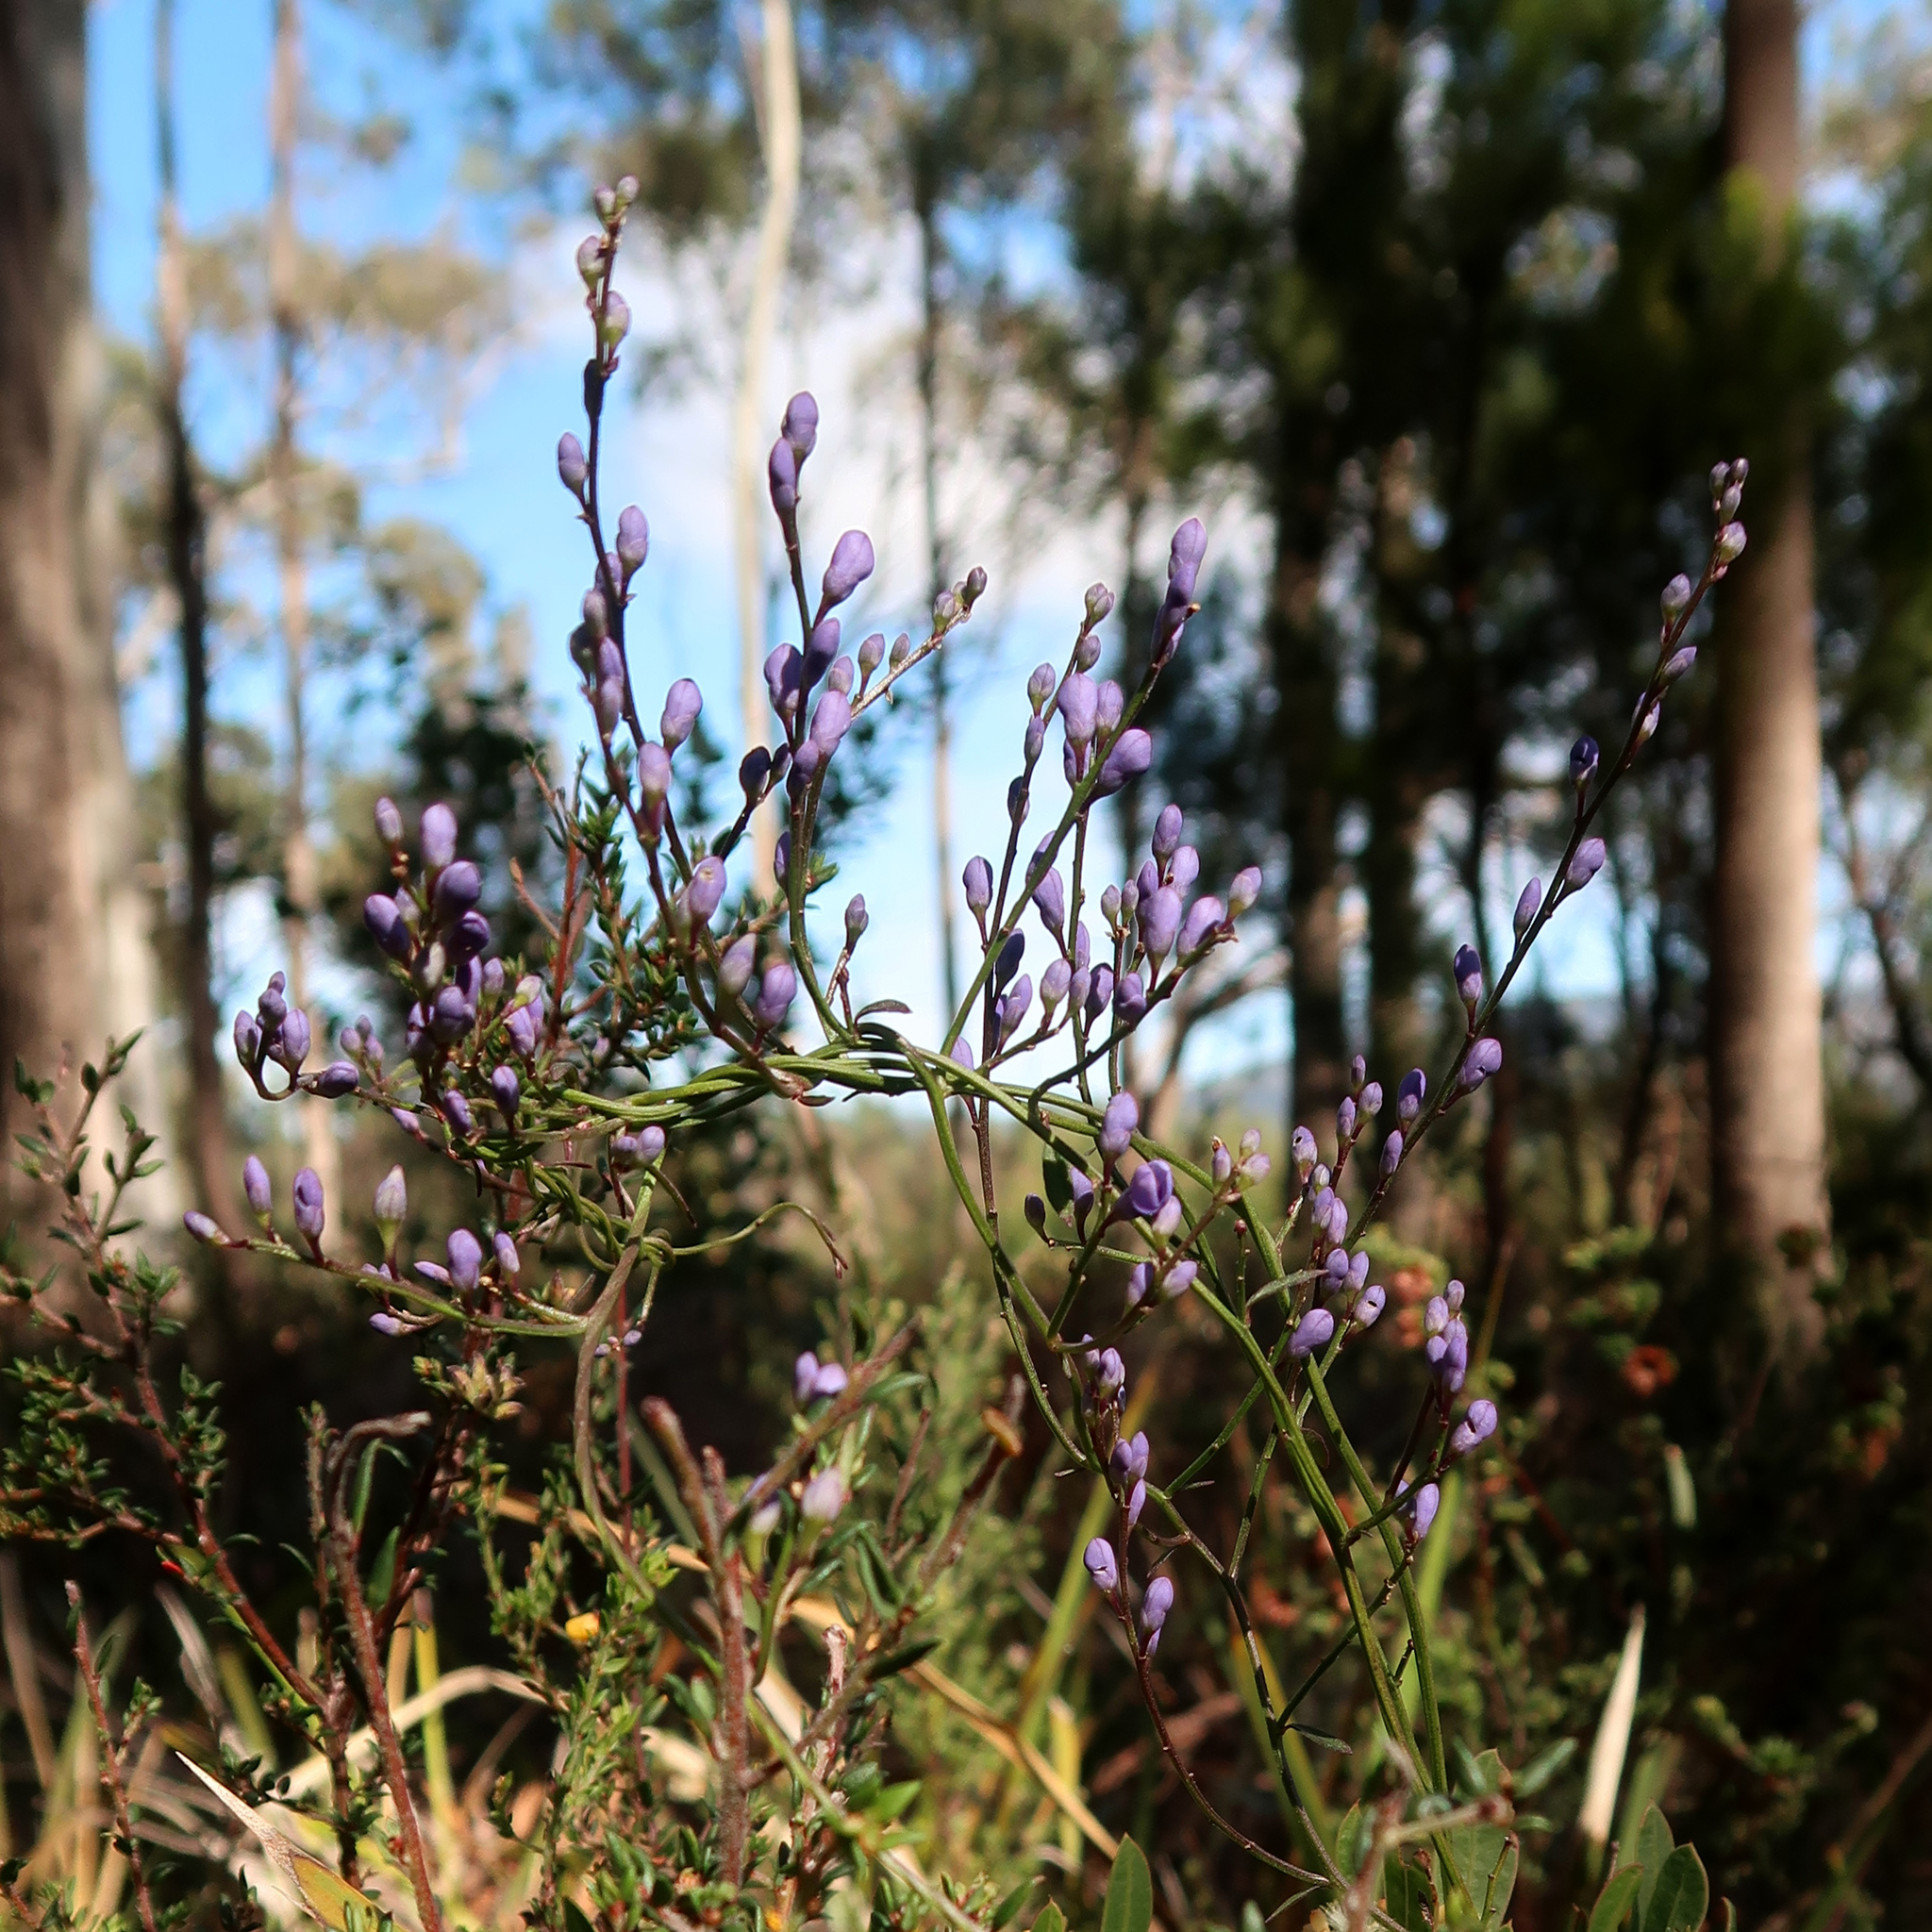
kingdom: Plantae
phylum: Tracheophyta
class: Magnoliopsida
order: Fabales
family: Polygalaceae
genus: Comesperma
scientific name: Comesperma volubile
